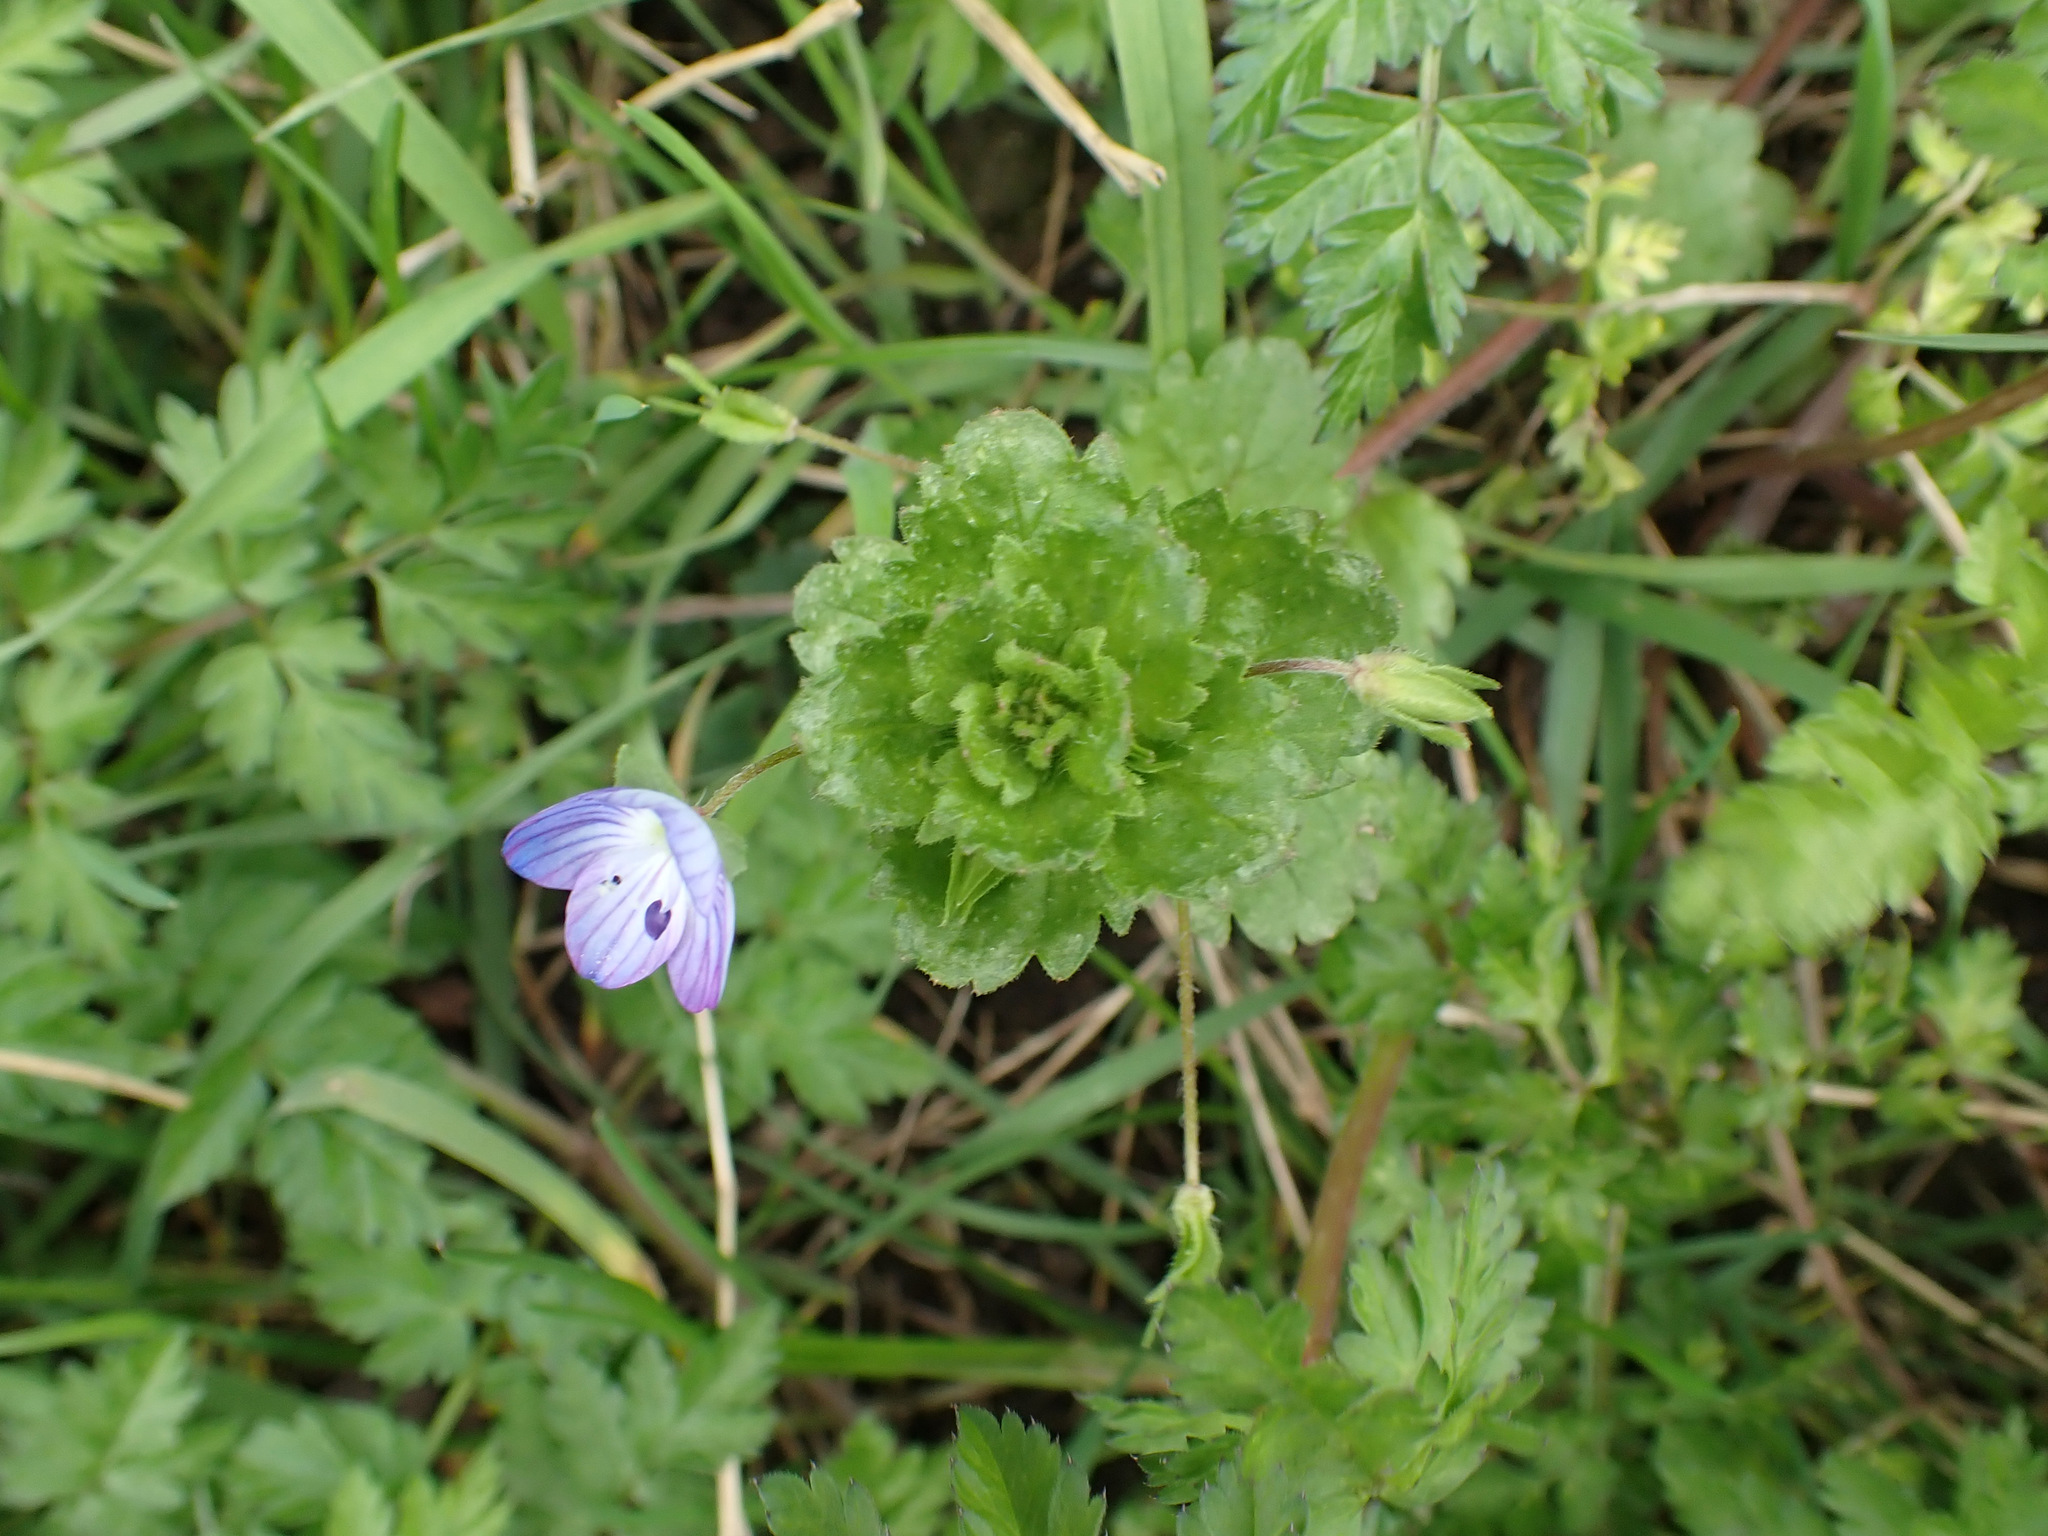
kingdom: Plantae
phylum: Tracheophyta
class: Magnoliopsida
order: Lamiales
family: Plantaginaceae
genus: Veronica
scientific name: Veronica persica
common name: Common field-speedwell
